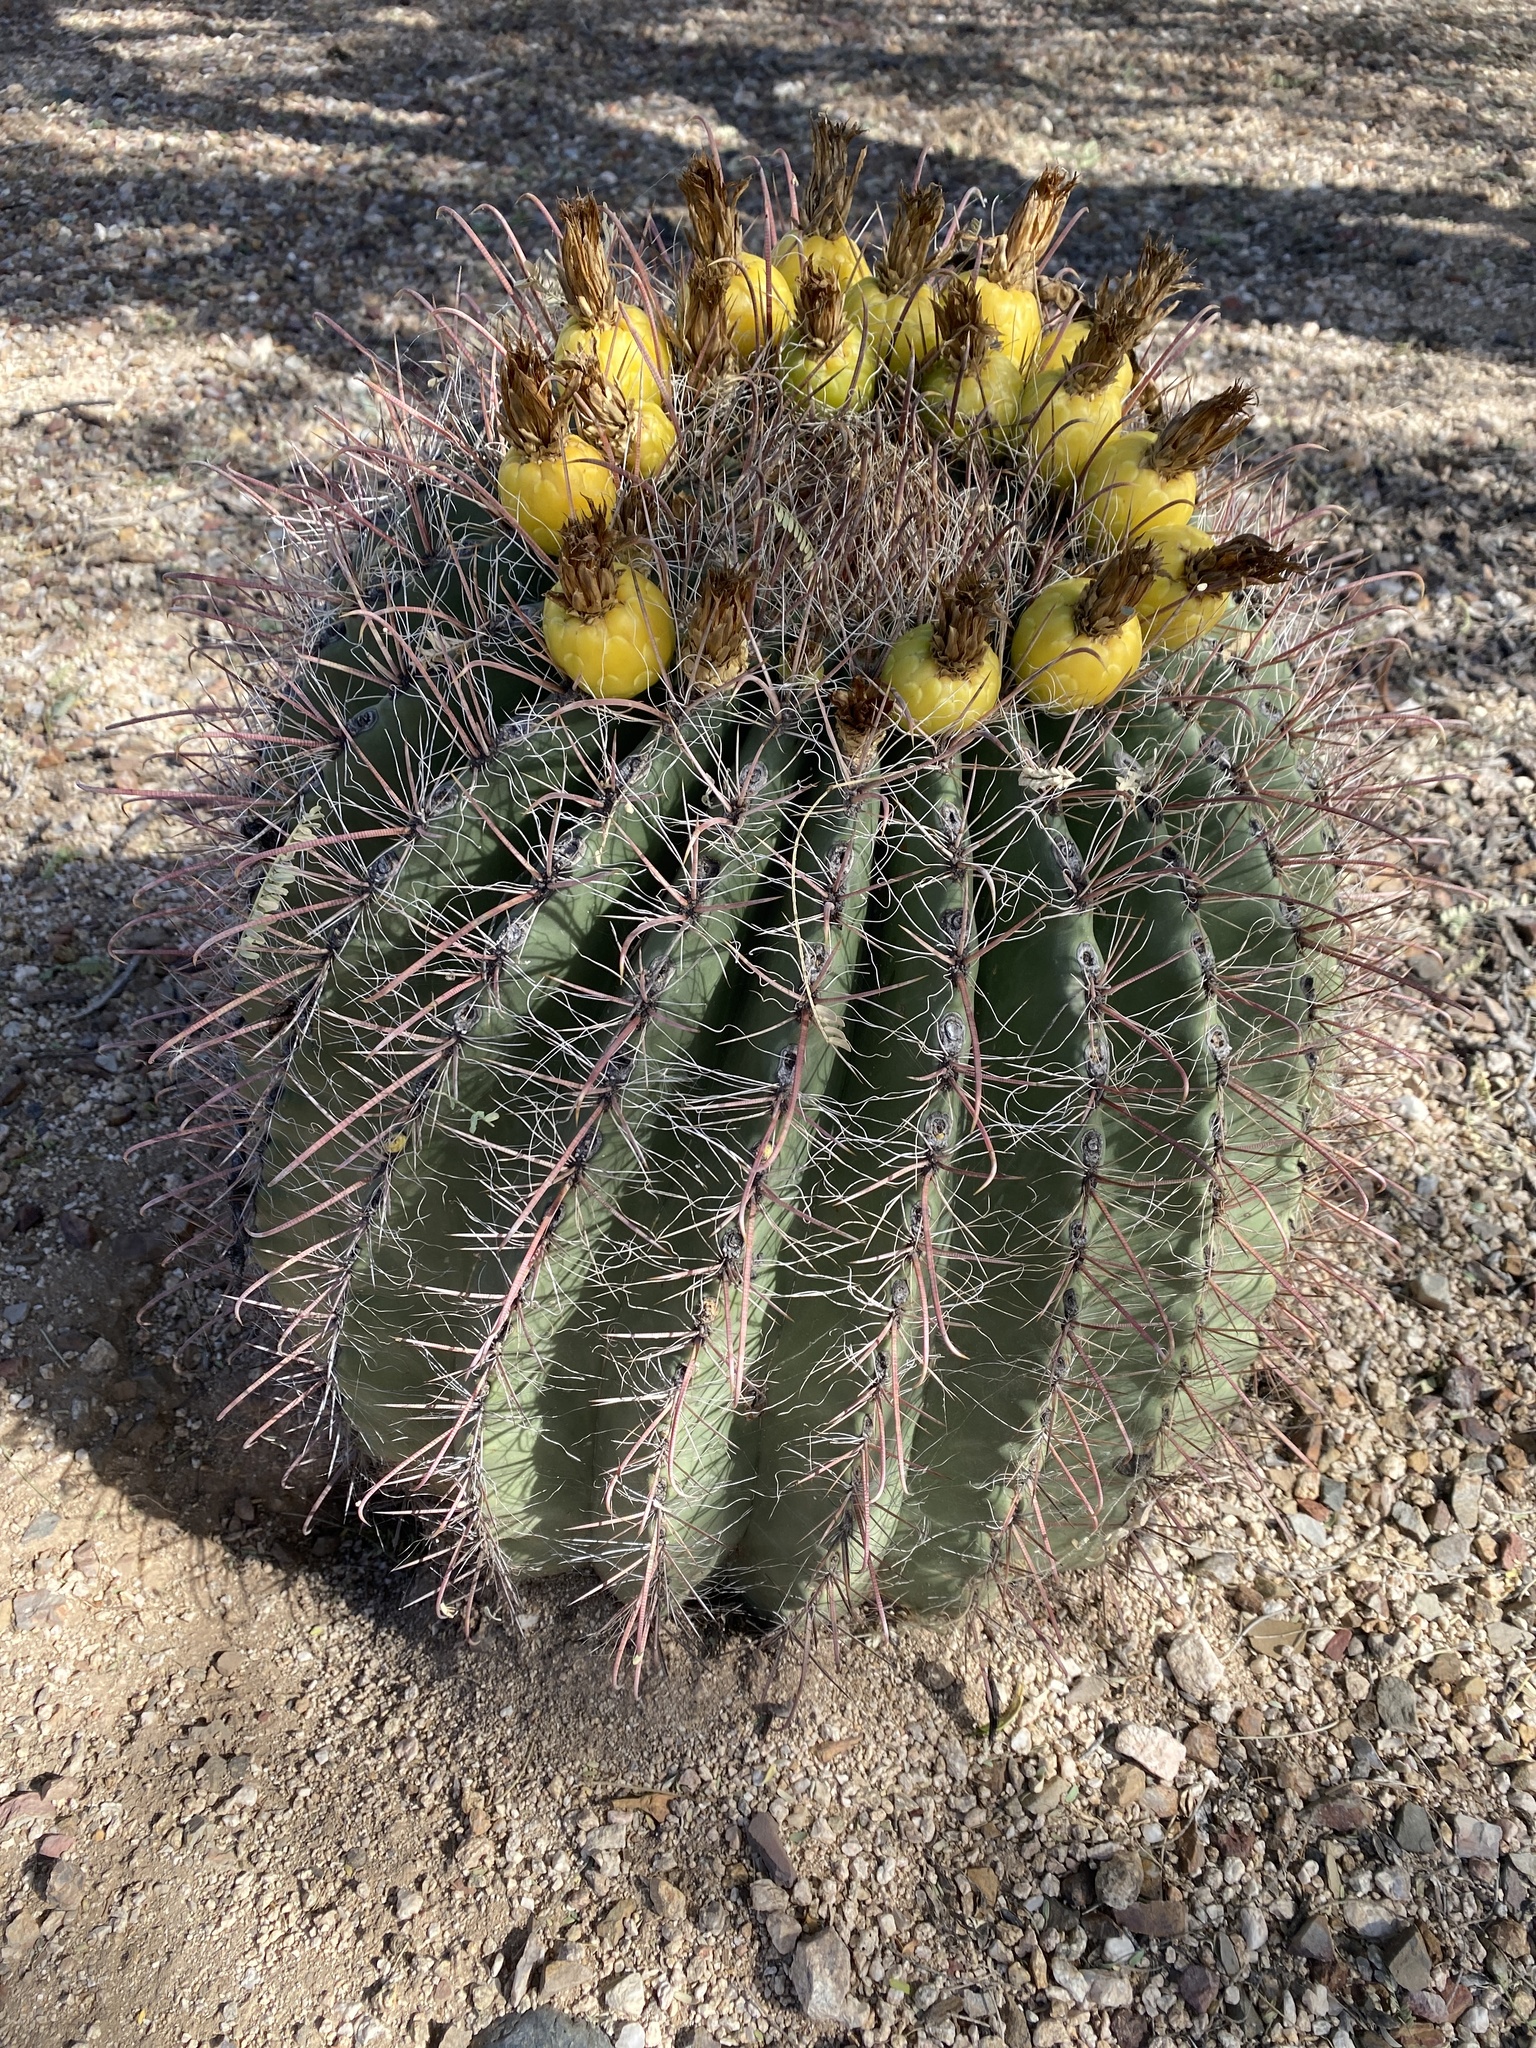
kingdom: Plantae
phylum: Tracheophyta
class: Magnoliopsida
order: Caryophyllales
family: Cactaceae
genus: Ferocactus
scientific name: Ferocactus wislizeni
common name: Candy barrel cactus
